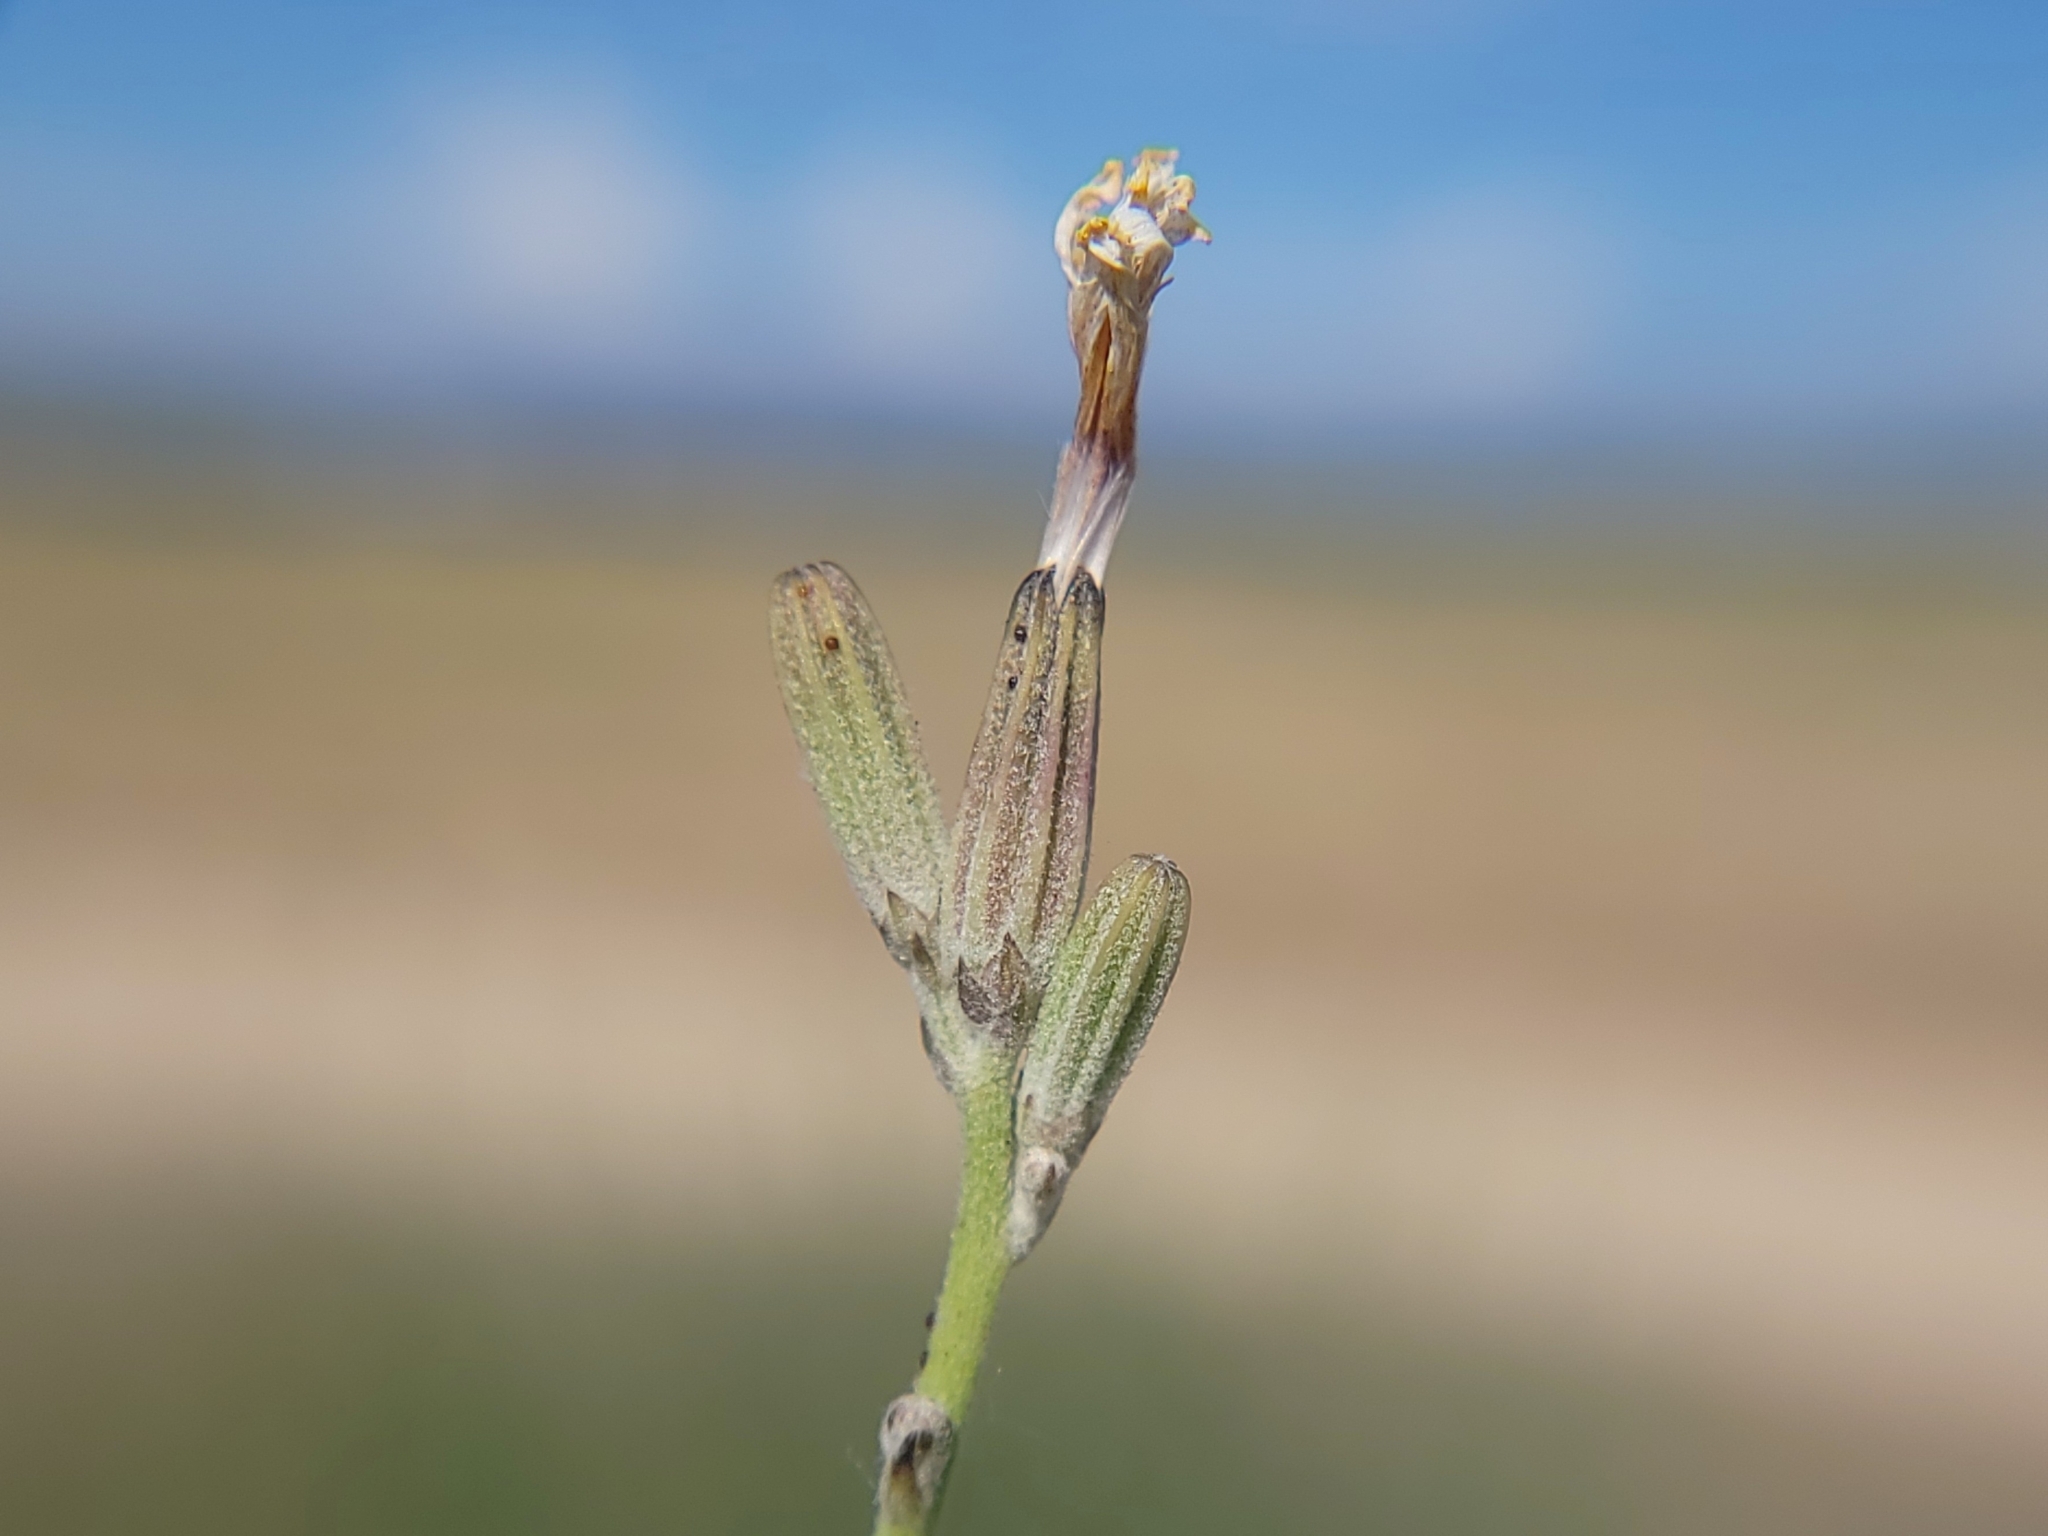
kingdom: Plantae
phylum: Tracheophyta
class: Magnoliopsida
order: Asterales
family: Asteraceae
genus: Chondrilla
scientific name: Chondrilla juncea
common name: Skeleton weed
